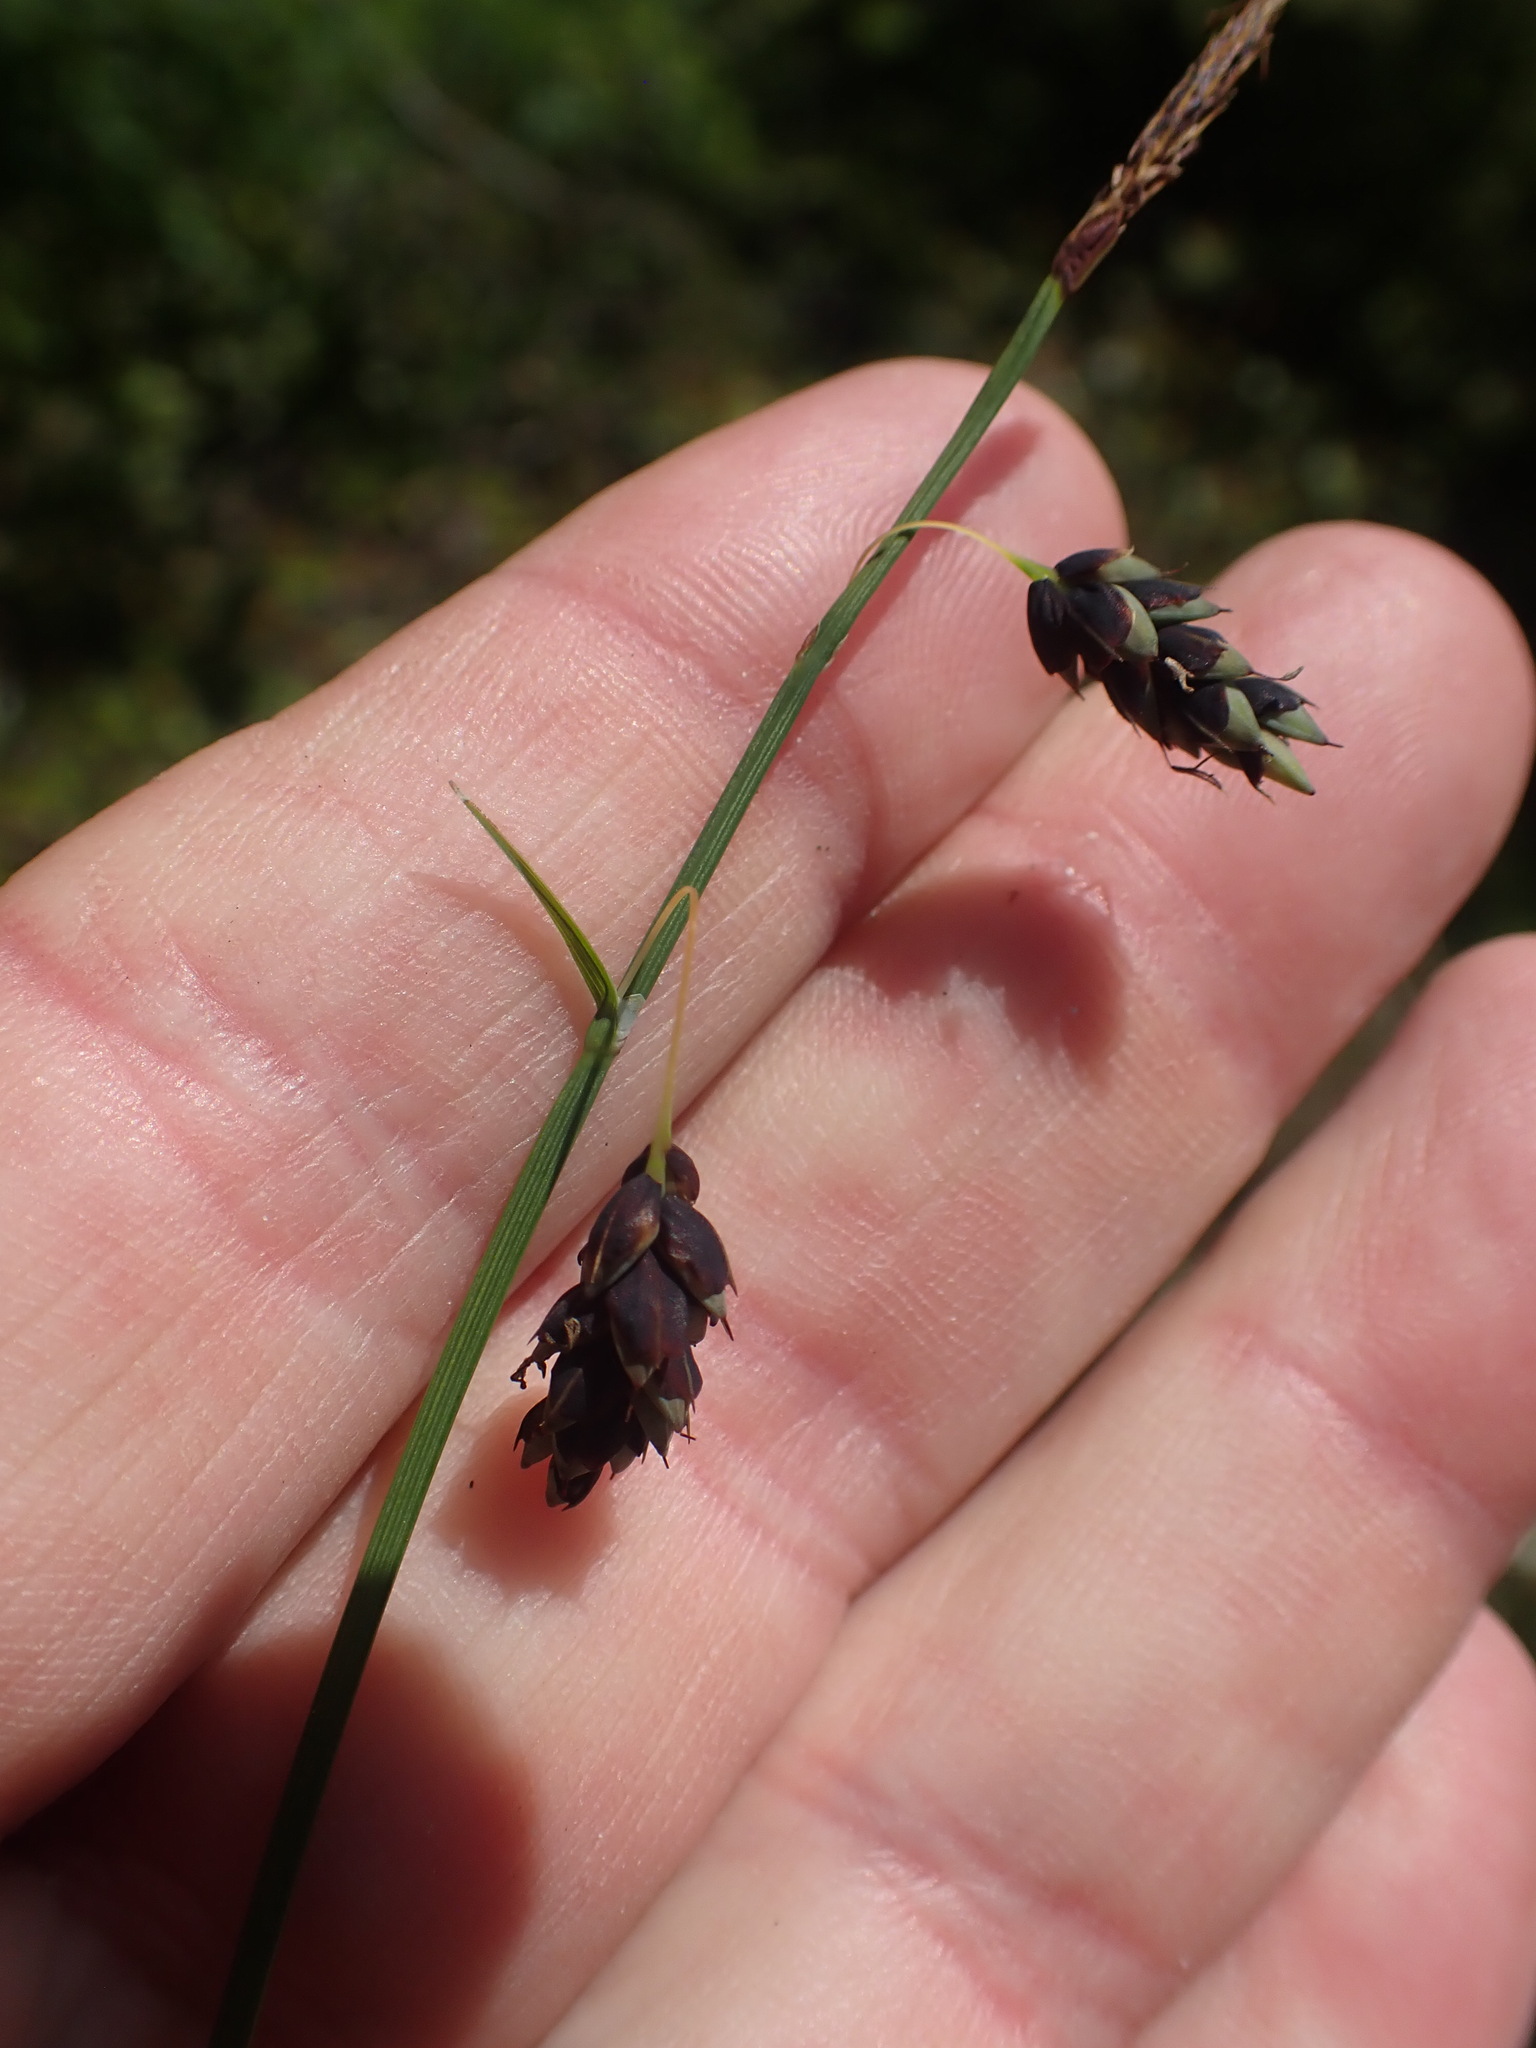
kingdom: Plantae
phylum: Tracheophyta
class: Liliopsida
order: Poales
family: Cyperaceae
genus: Carex
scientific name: Carex pluriflora
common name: Manyflower sedge
